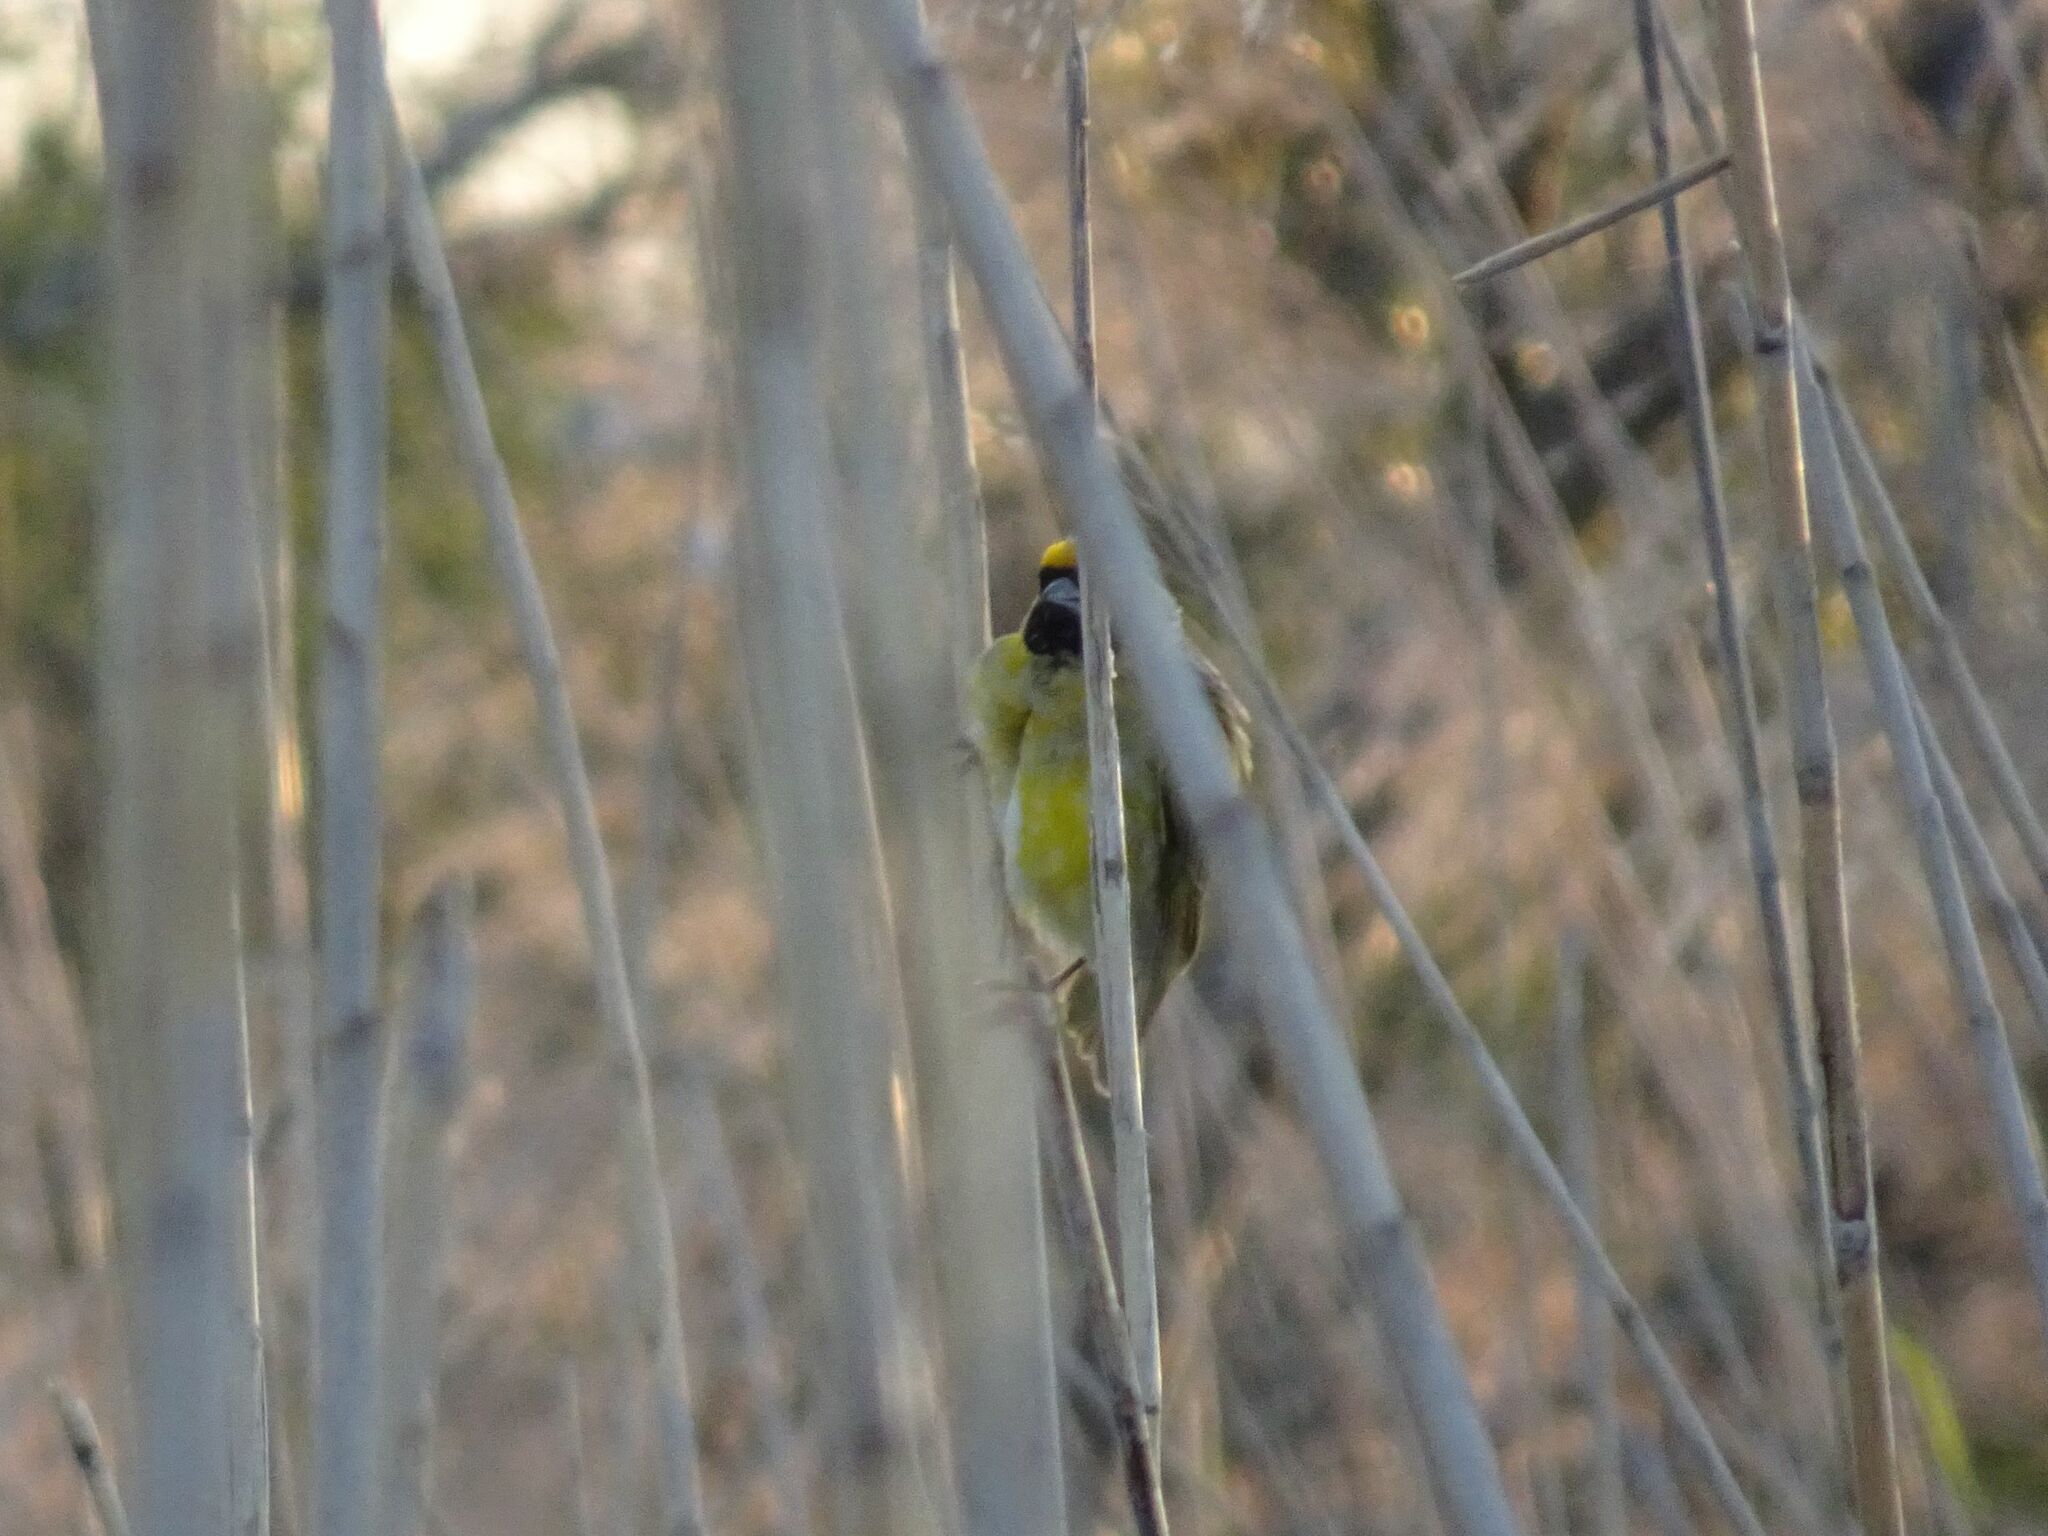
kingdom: Animalia
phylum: Chordata
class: Aves
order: Passeriformes
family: Ploceidae
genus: Ploceus
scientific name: Ploceus velatus
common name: Southern masked weaver
